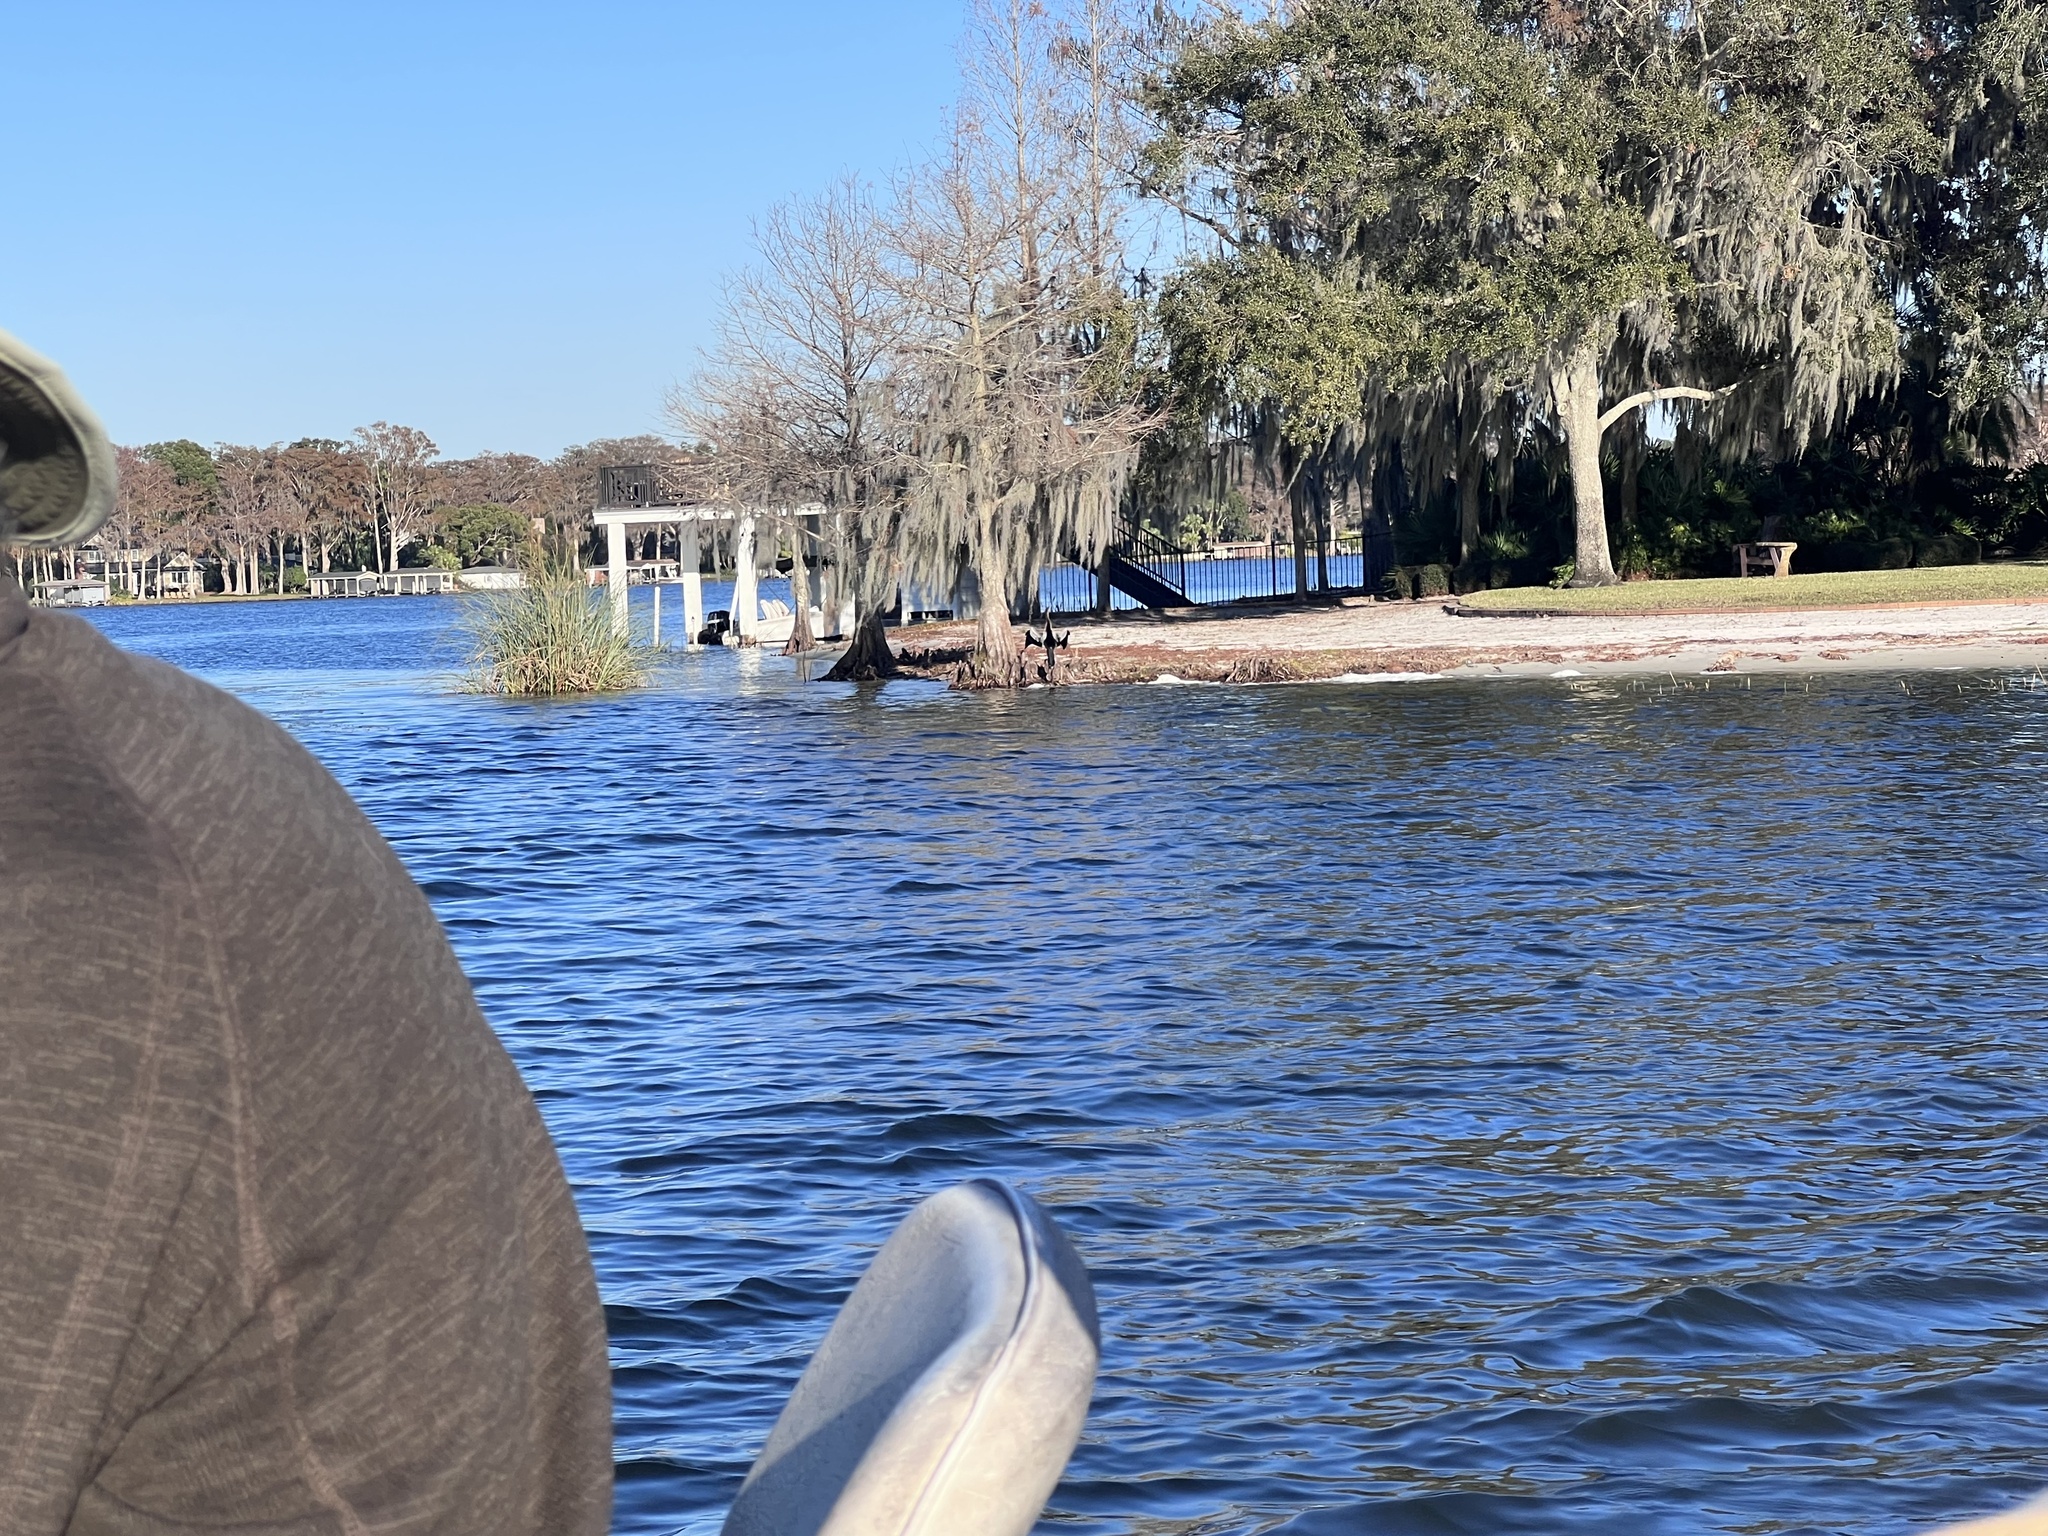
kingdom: Animalia
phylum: Chordata
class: Aves
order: Suliformes
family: Anhingidae
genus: Anhinga
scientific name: Anhinga anhinga
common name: Anhinga
